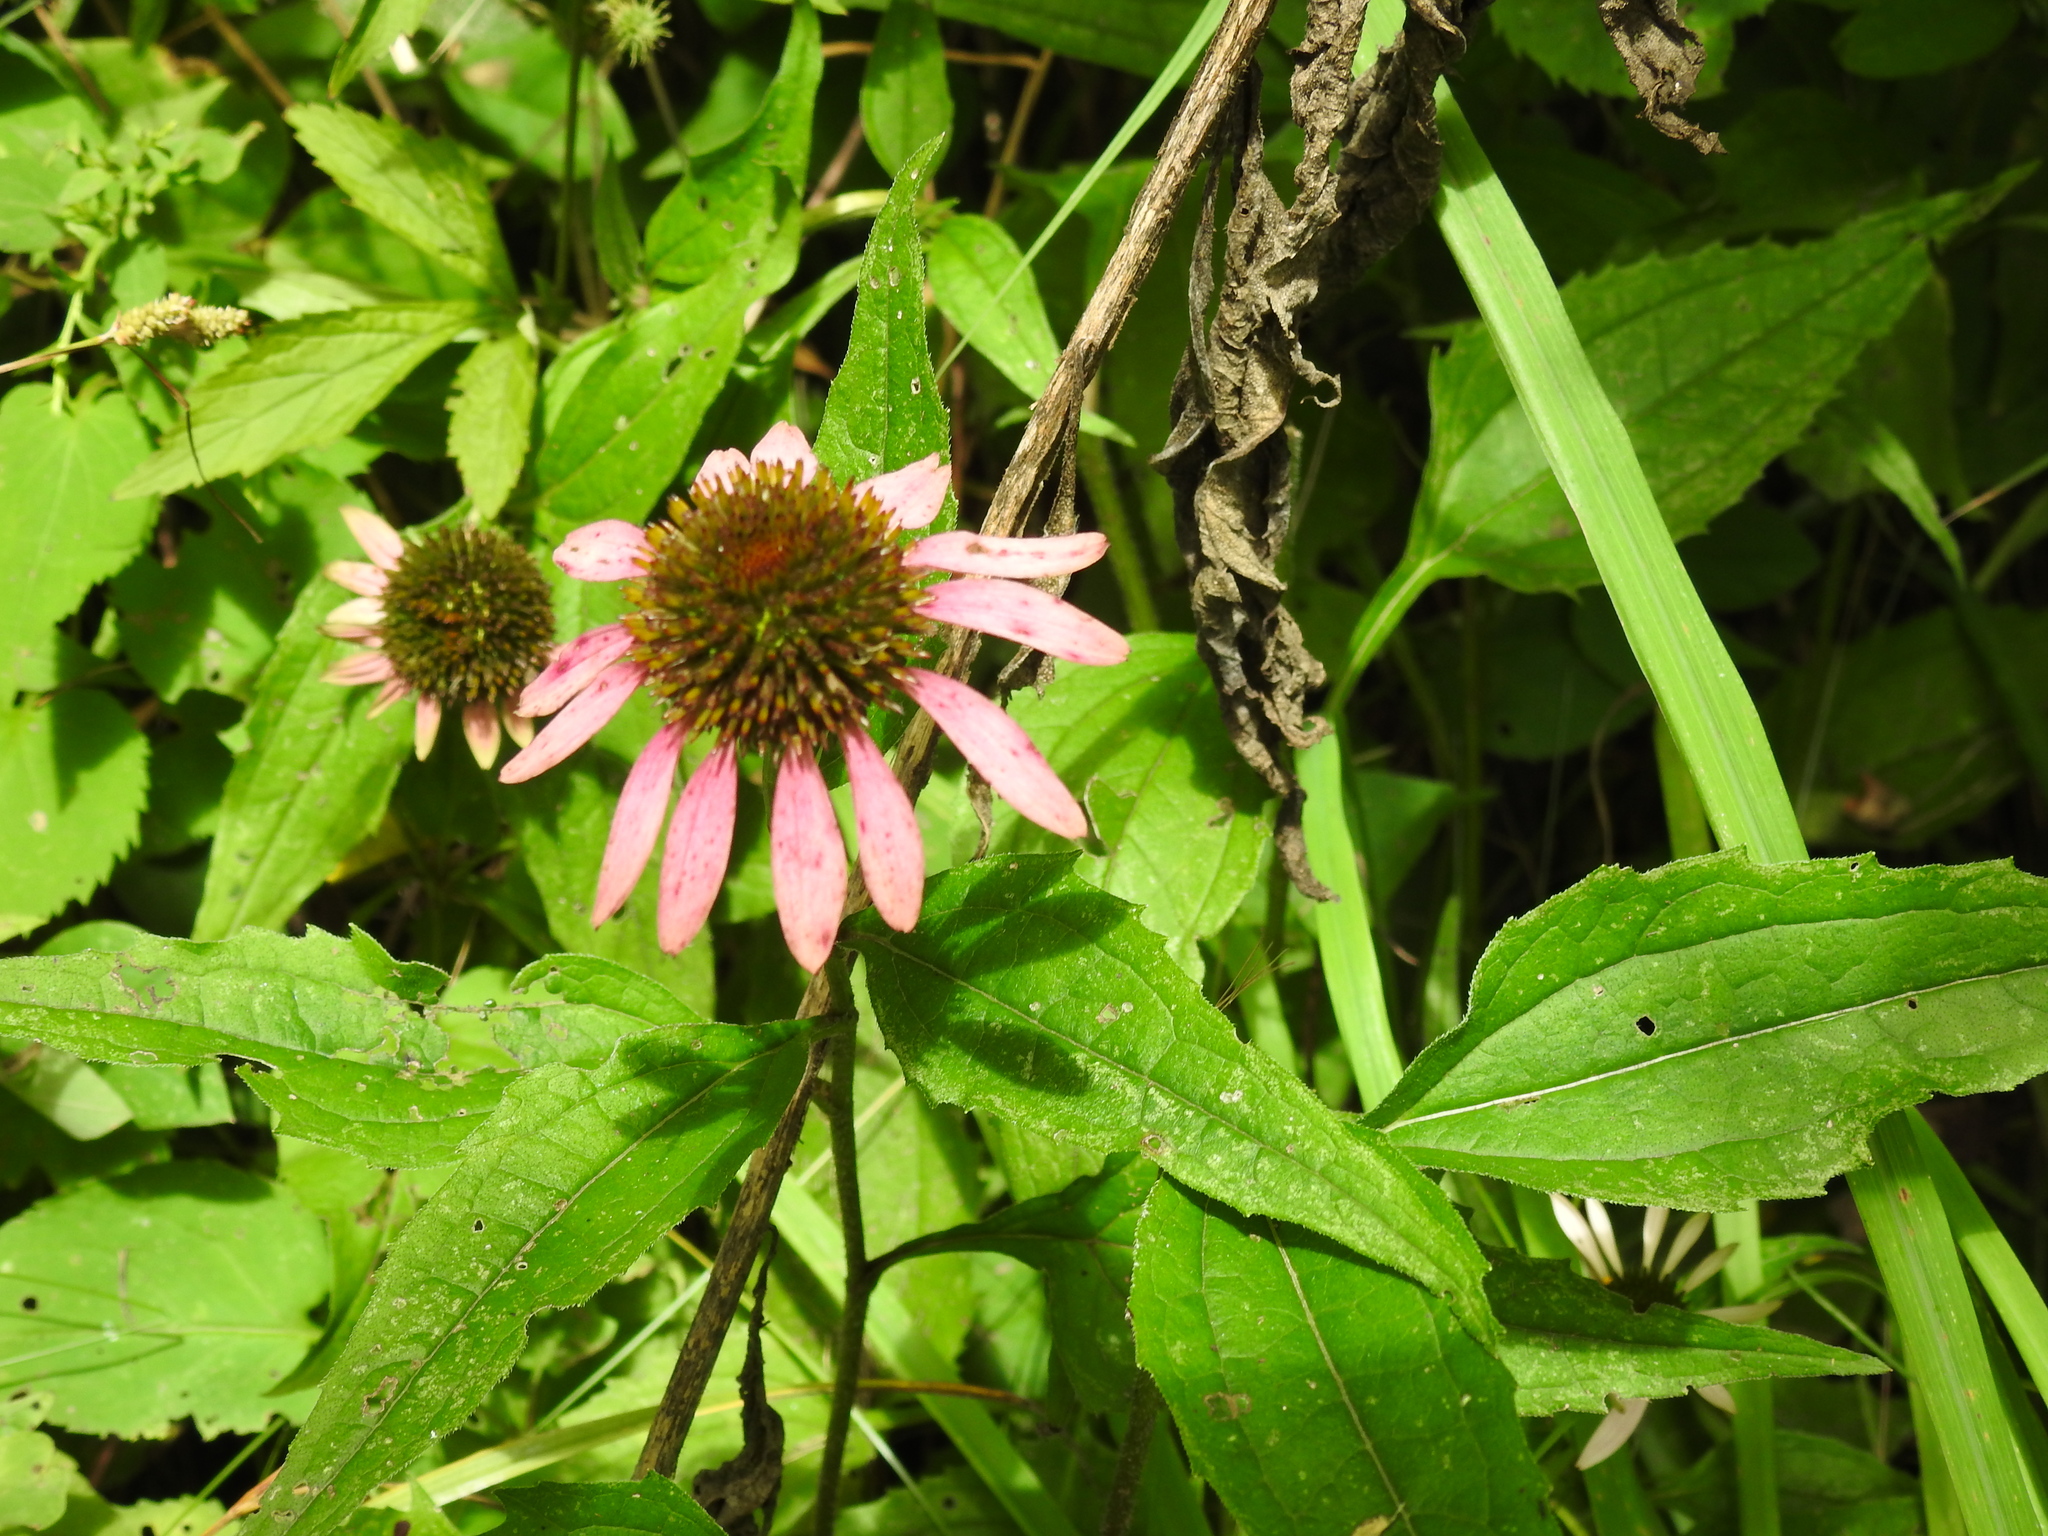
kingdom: Plantae
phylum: Tracheophyta
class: Magnoliopsida
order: Asterales
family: Asteraceae
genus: Echinacea
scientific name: Echinacea purpurea
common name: Broad-leaved purple coneflower
